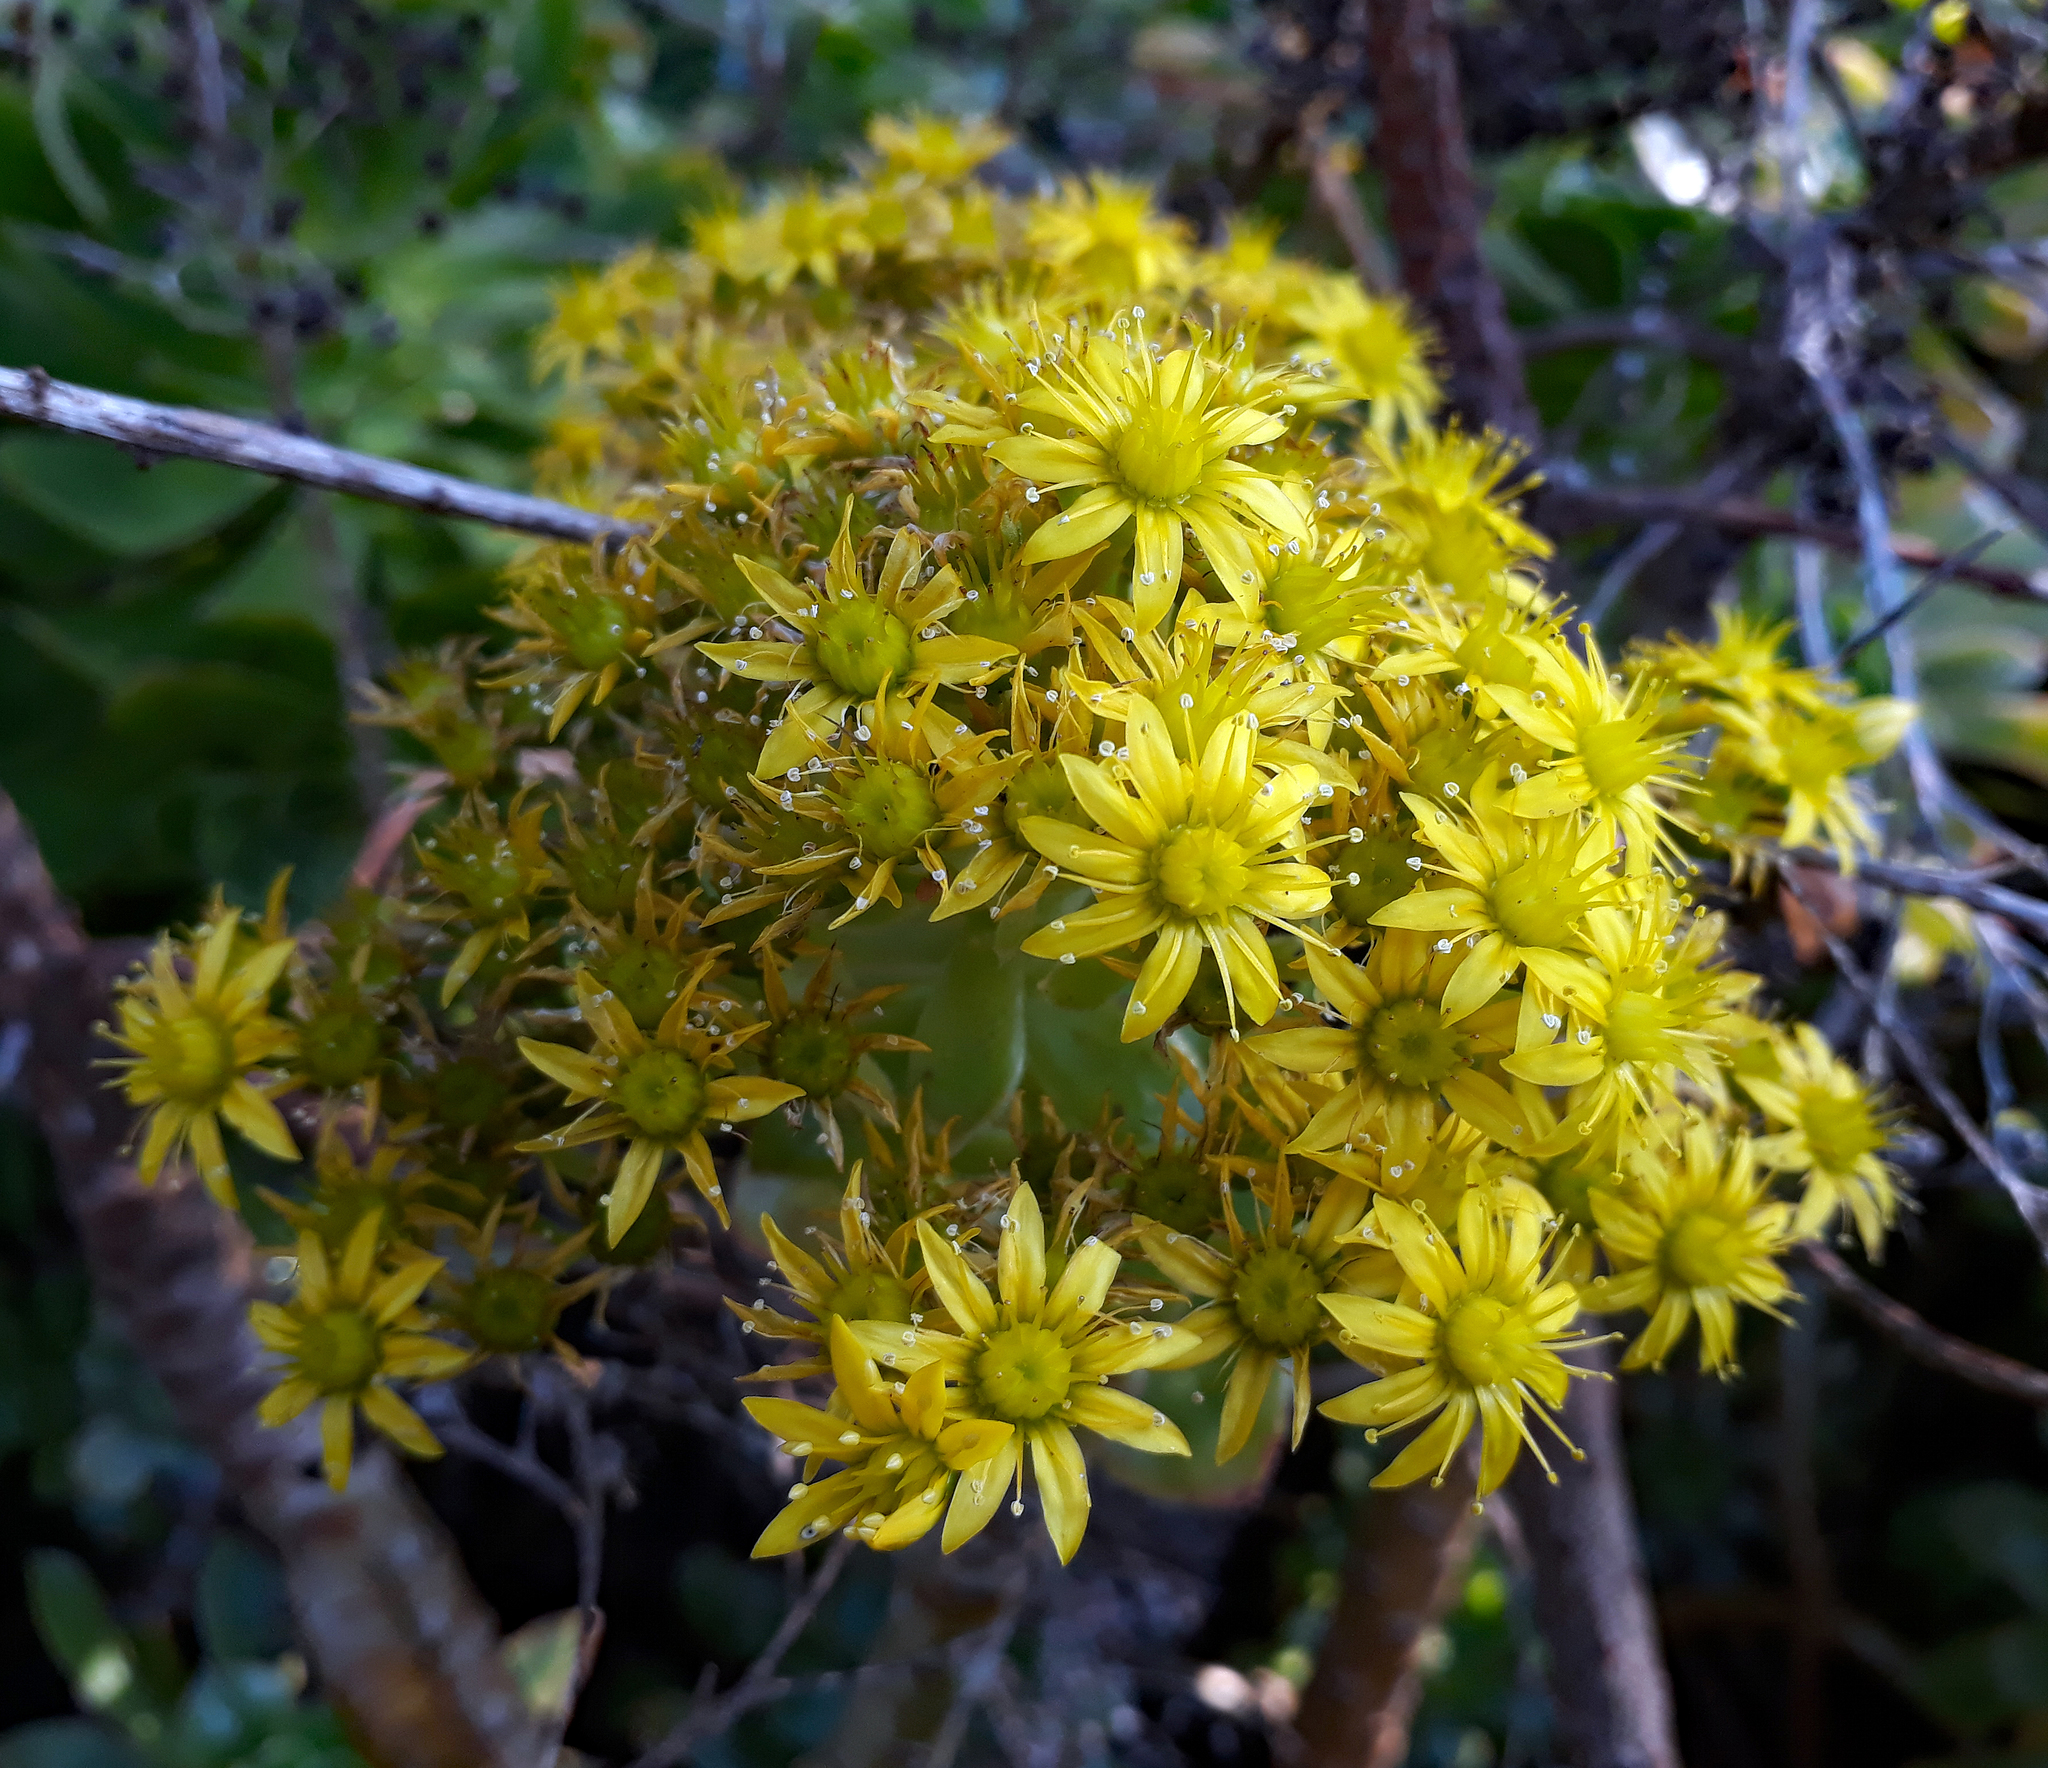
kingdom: Plantae
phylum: Tracheophyta
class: Magnoliopsida
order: Saxifragales
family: Crassulaceae
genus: Aeonium
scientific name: Aeonium arboreum
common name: Tree aeonium
